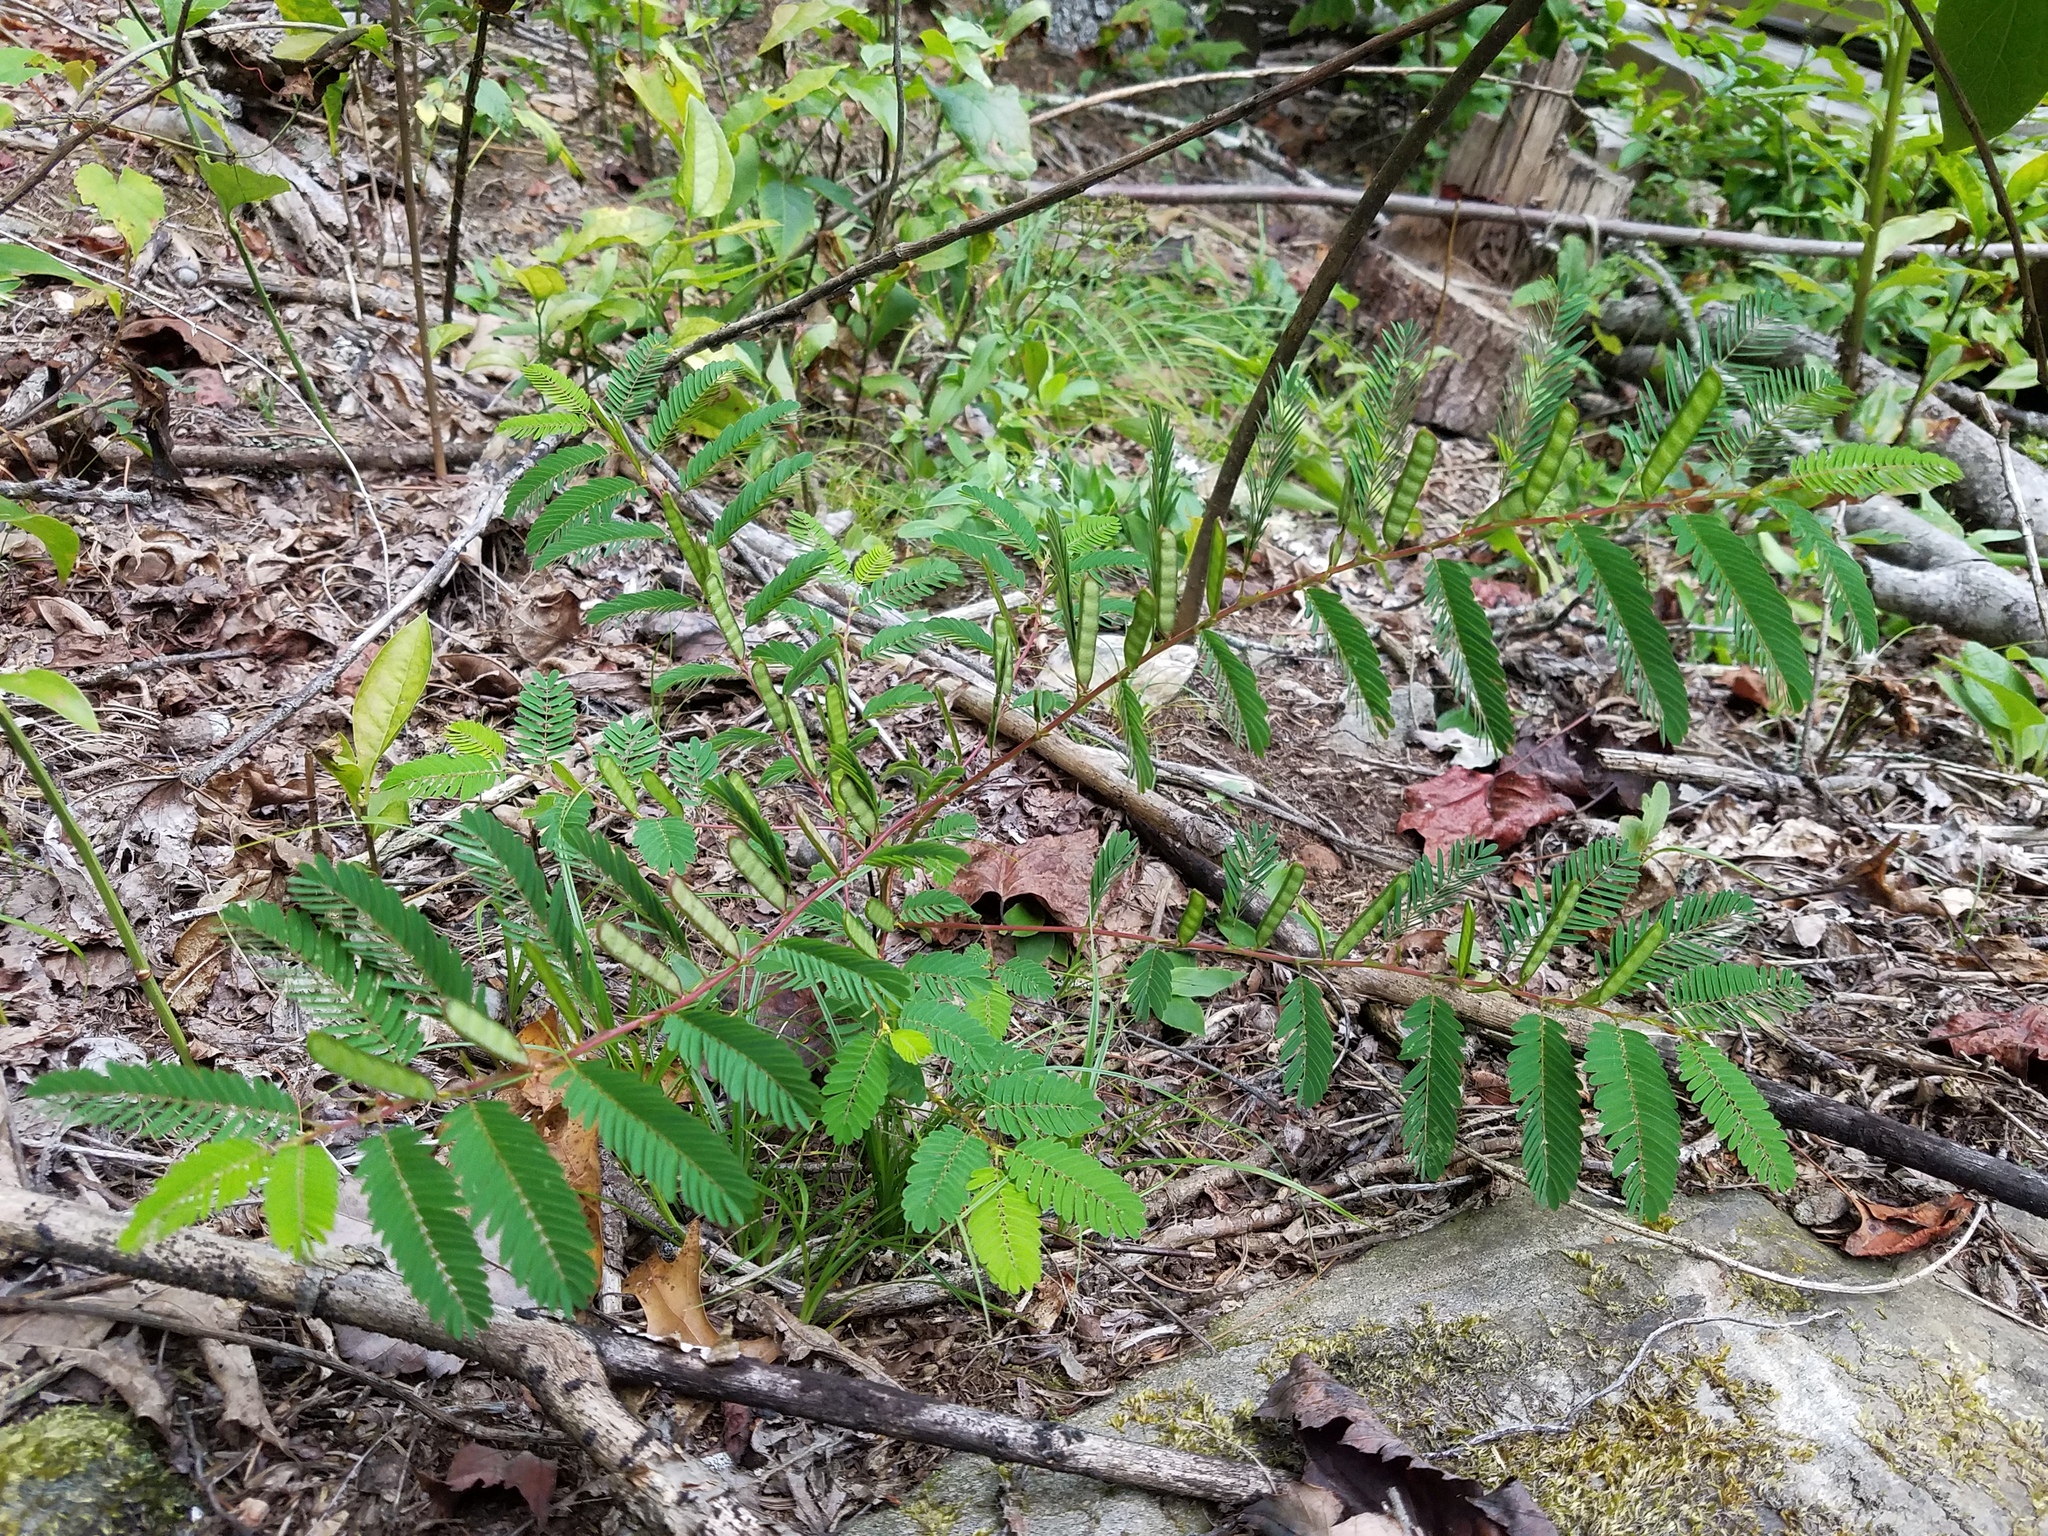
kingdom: Plantae
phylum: Tracheophyta
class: Magnoliopsida
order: Fabales
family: Fabaceae
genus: Chamaecrista
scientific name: Chamaecrista nictitans
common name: Sensitive cassia
